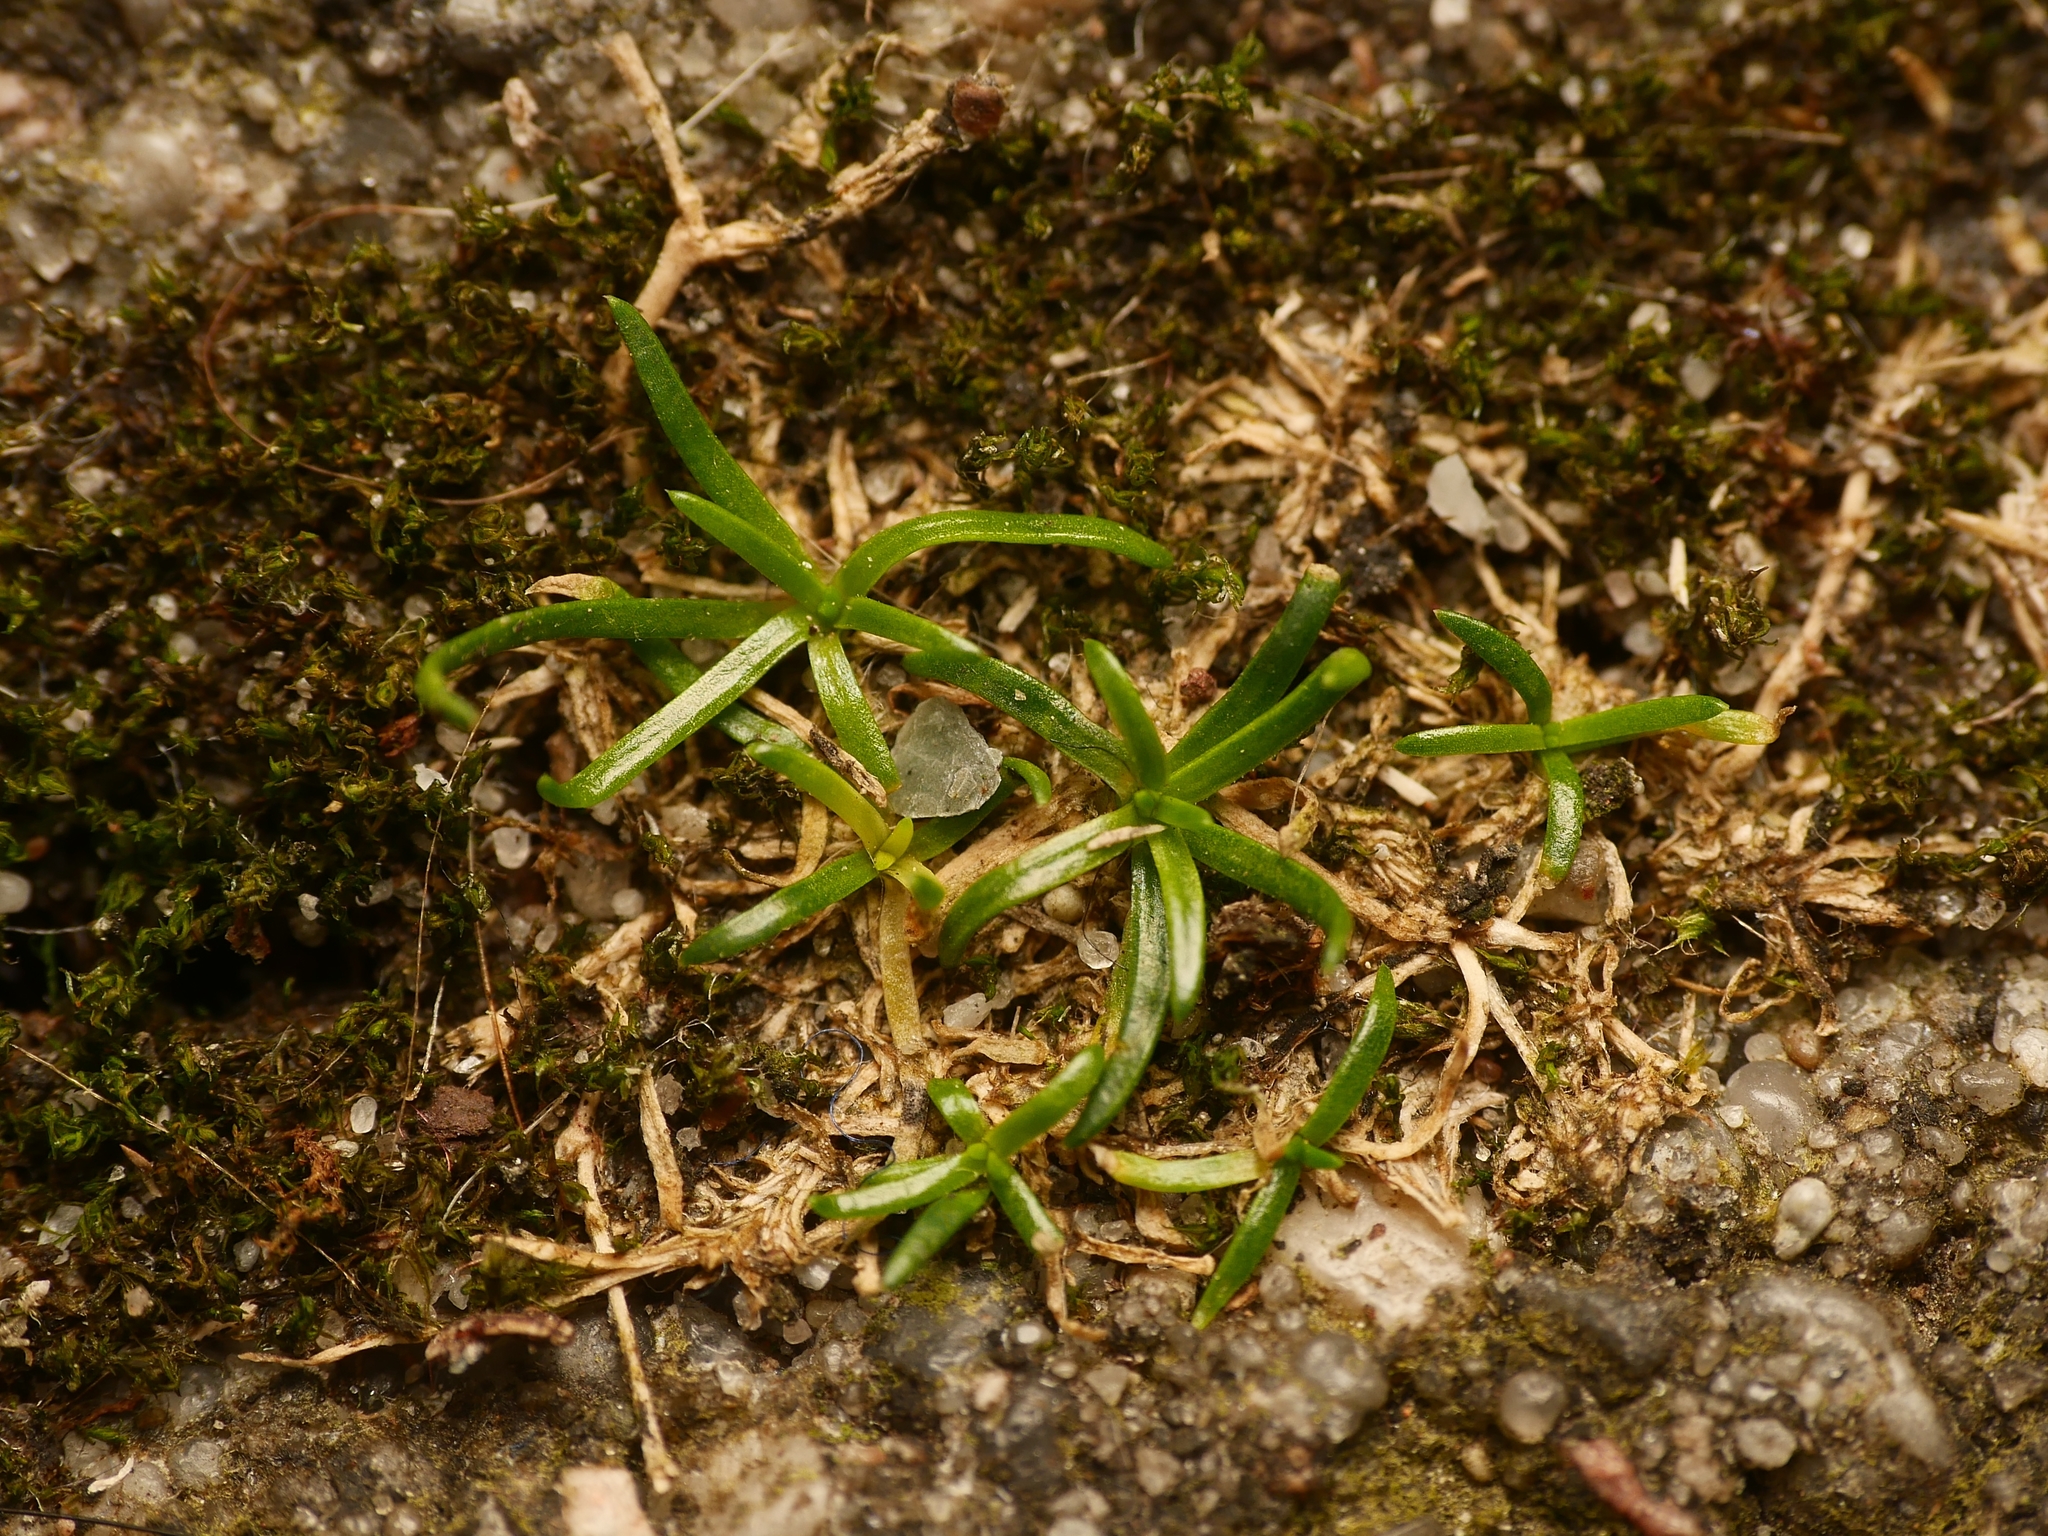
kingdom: Plantae
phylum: Tracheophyta
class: Magnoliopsida
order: Caryophyllales
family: Caryophyllaceae
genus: Sagina
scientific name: Sagina procumbens
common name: Procumbent pearlwort
